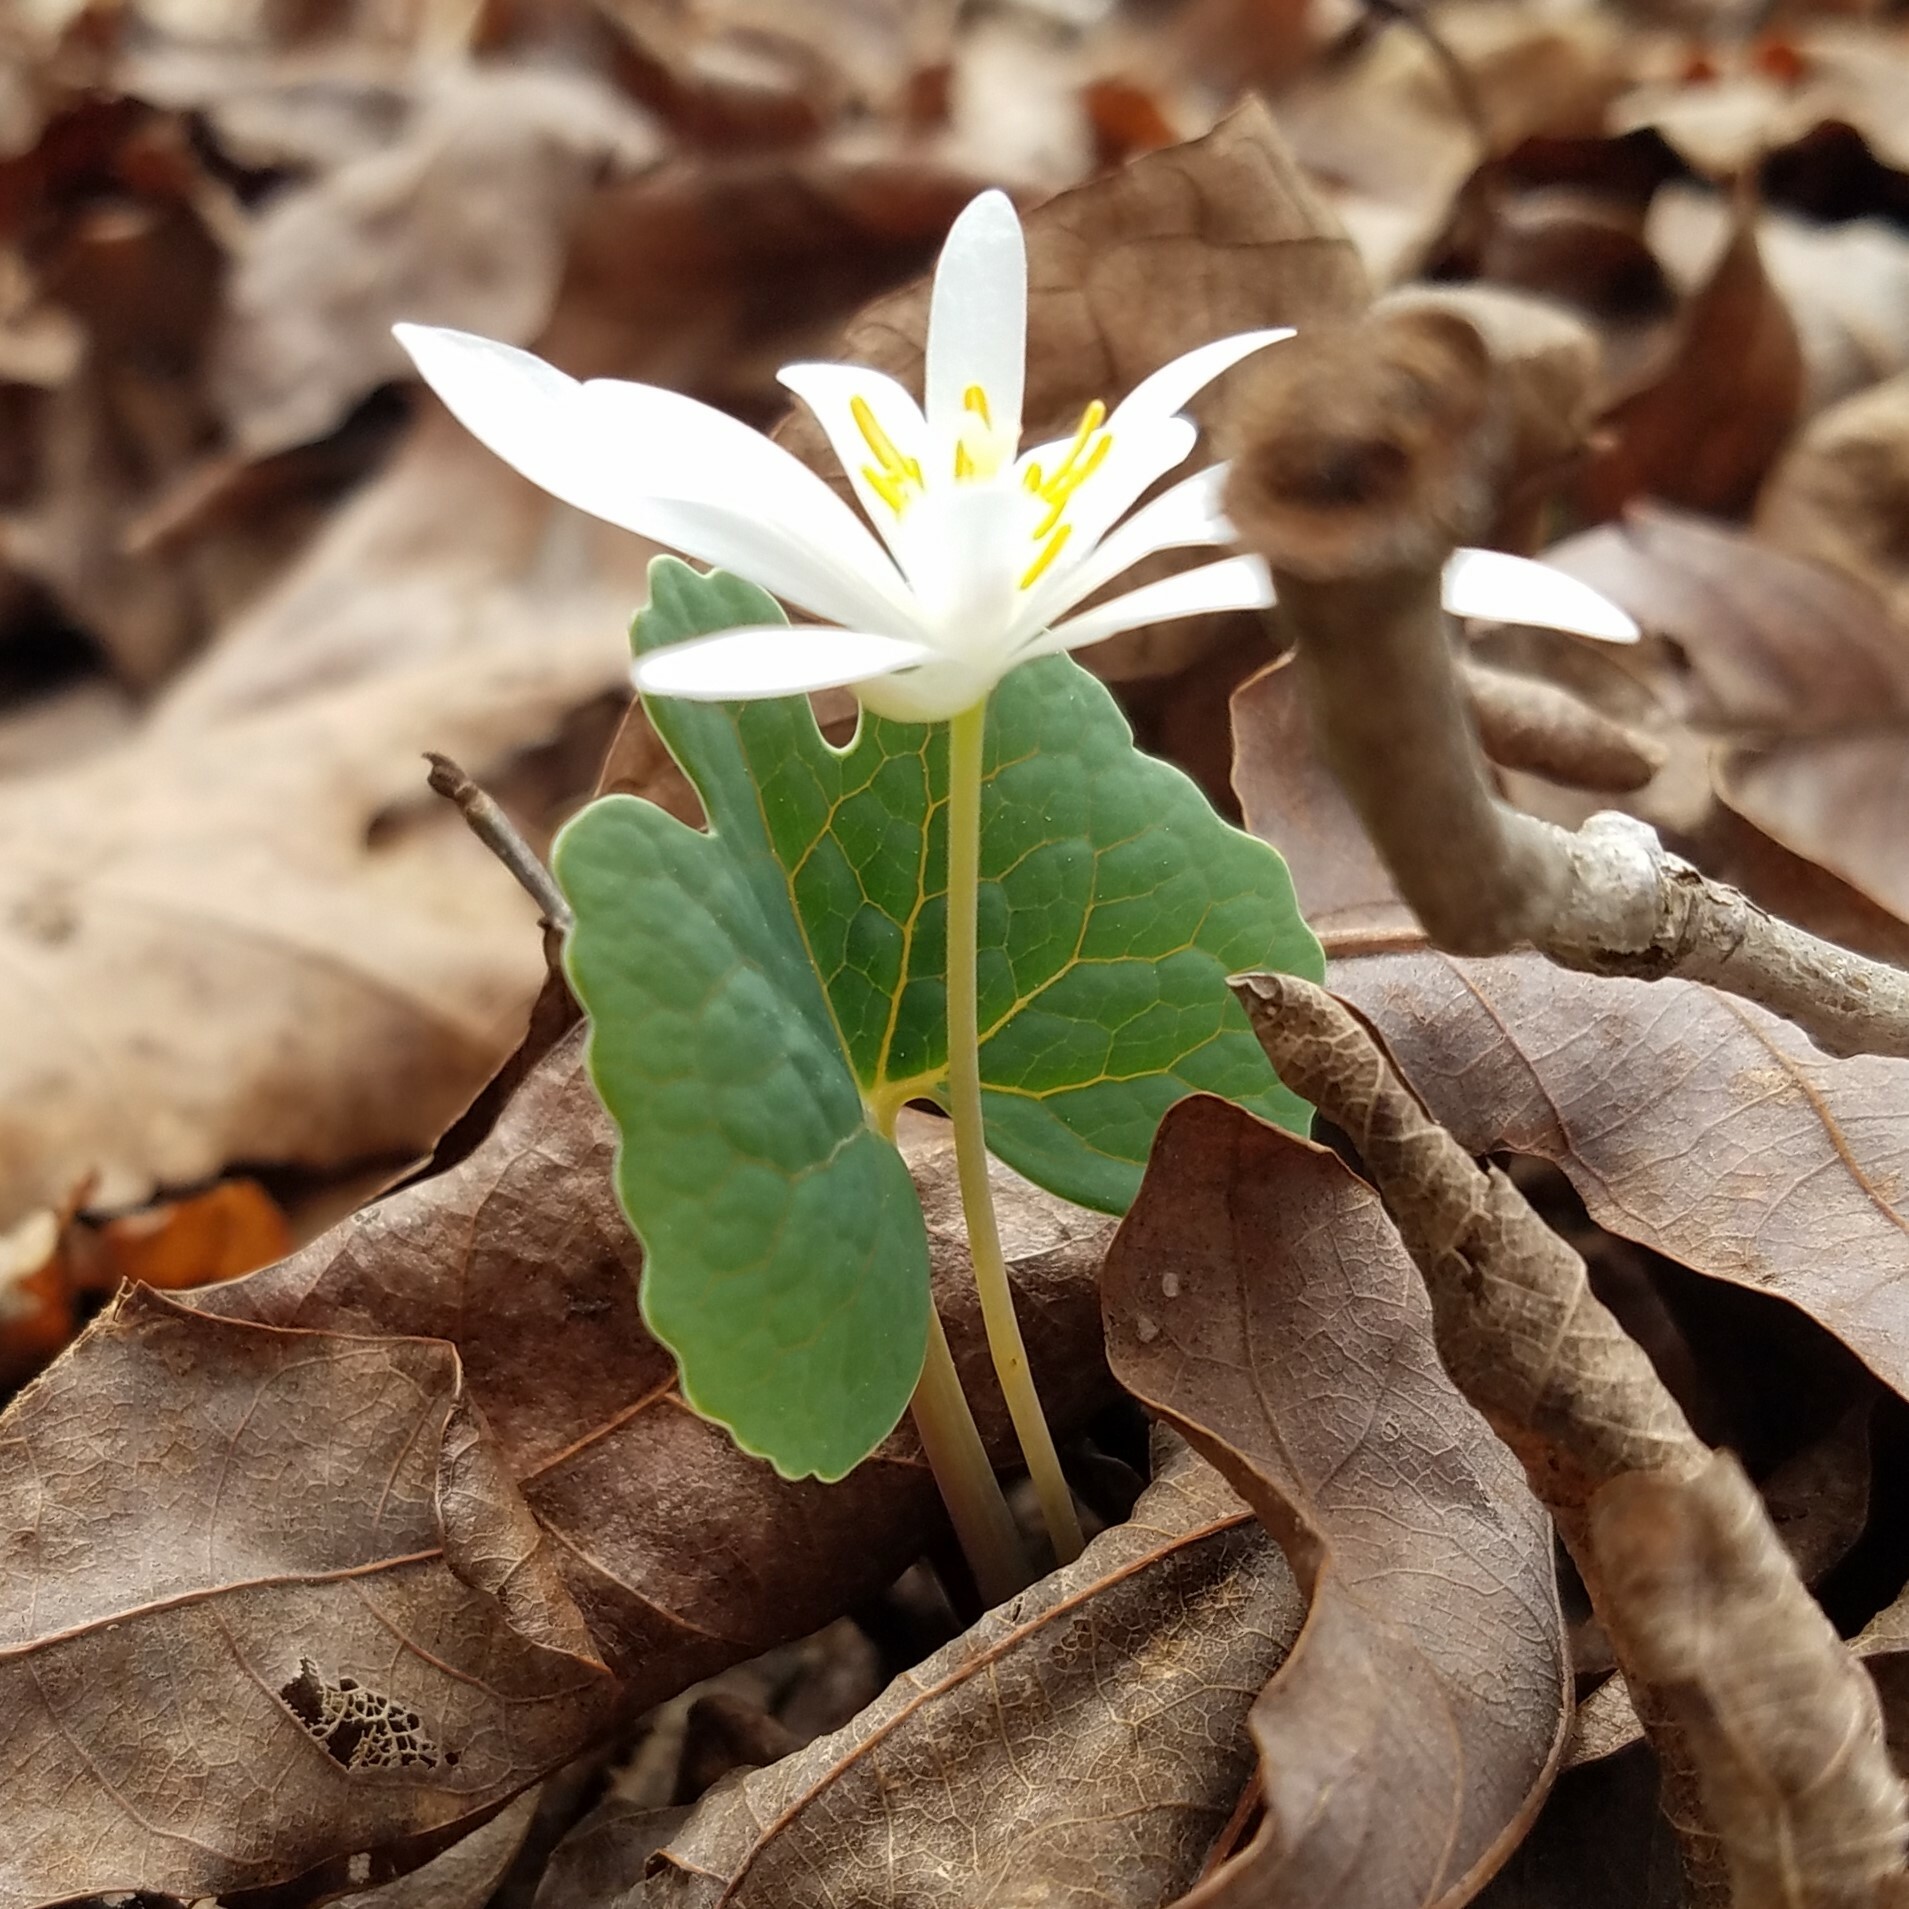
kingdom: Plantae
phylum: Tracheophyta
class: Magnoliopsida
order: Ranunculales
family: Papaveraceae
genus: Sanguinaria
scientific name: Sanguinaria canadensis
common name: Bloodroot
